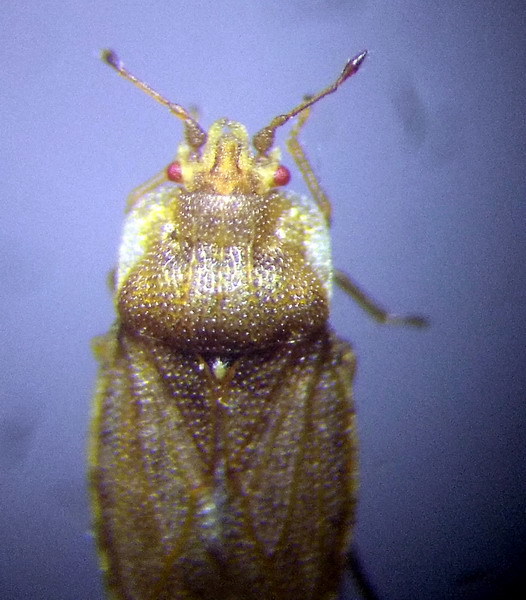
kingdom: Animalia
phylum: Arthropoda
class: Insecta
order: Hemiptera
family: Piesmatidae
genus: Parapiesma
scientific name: Parapiesma quadratum
